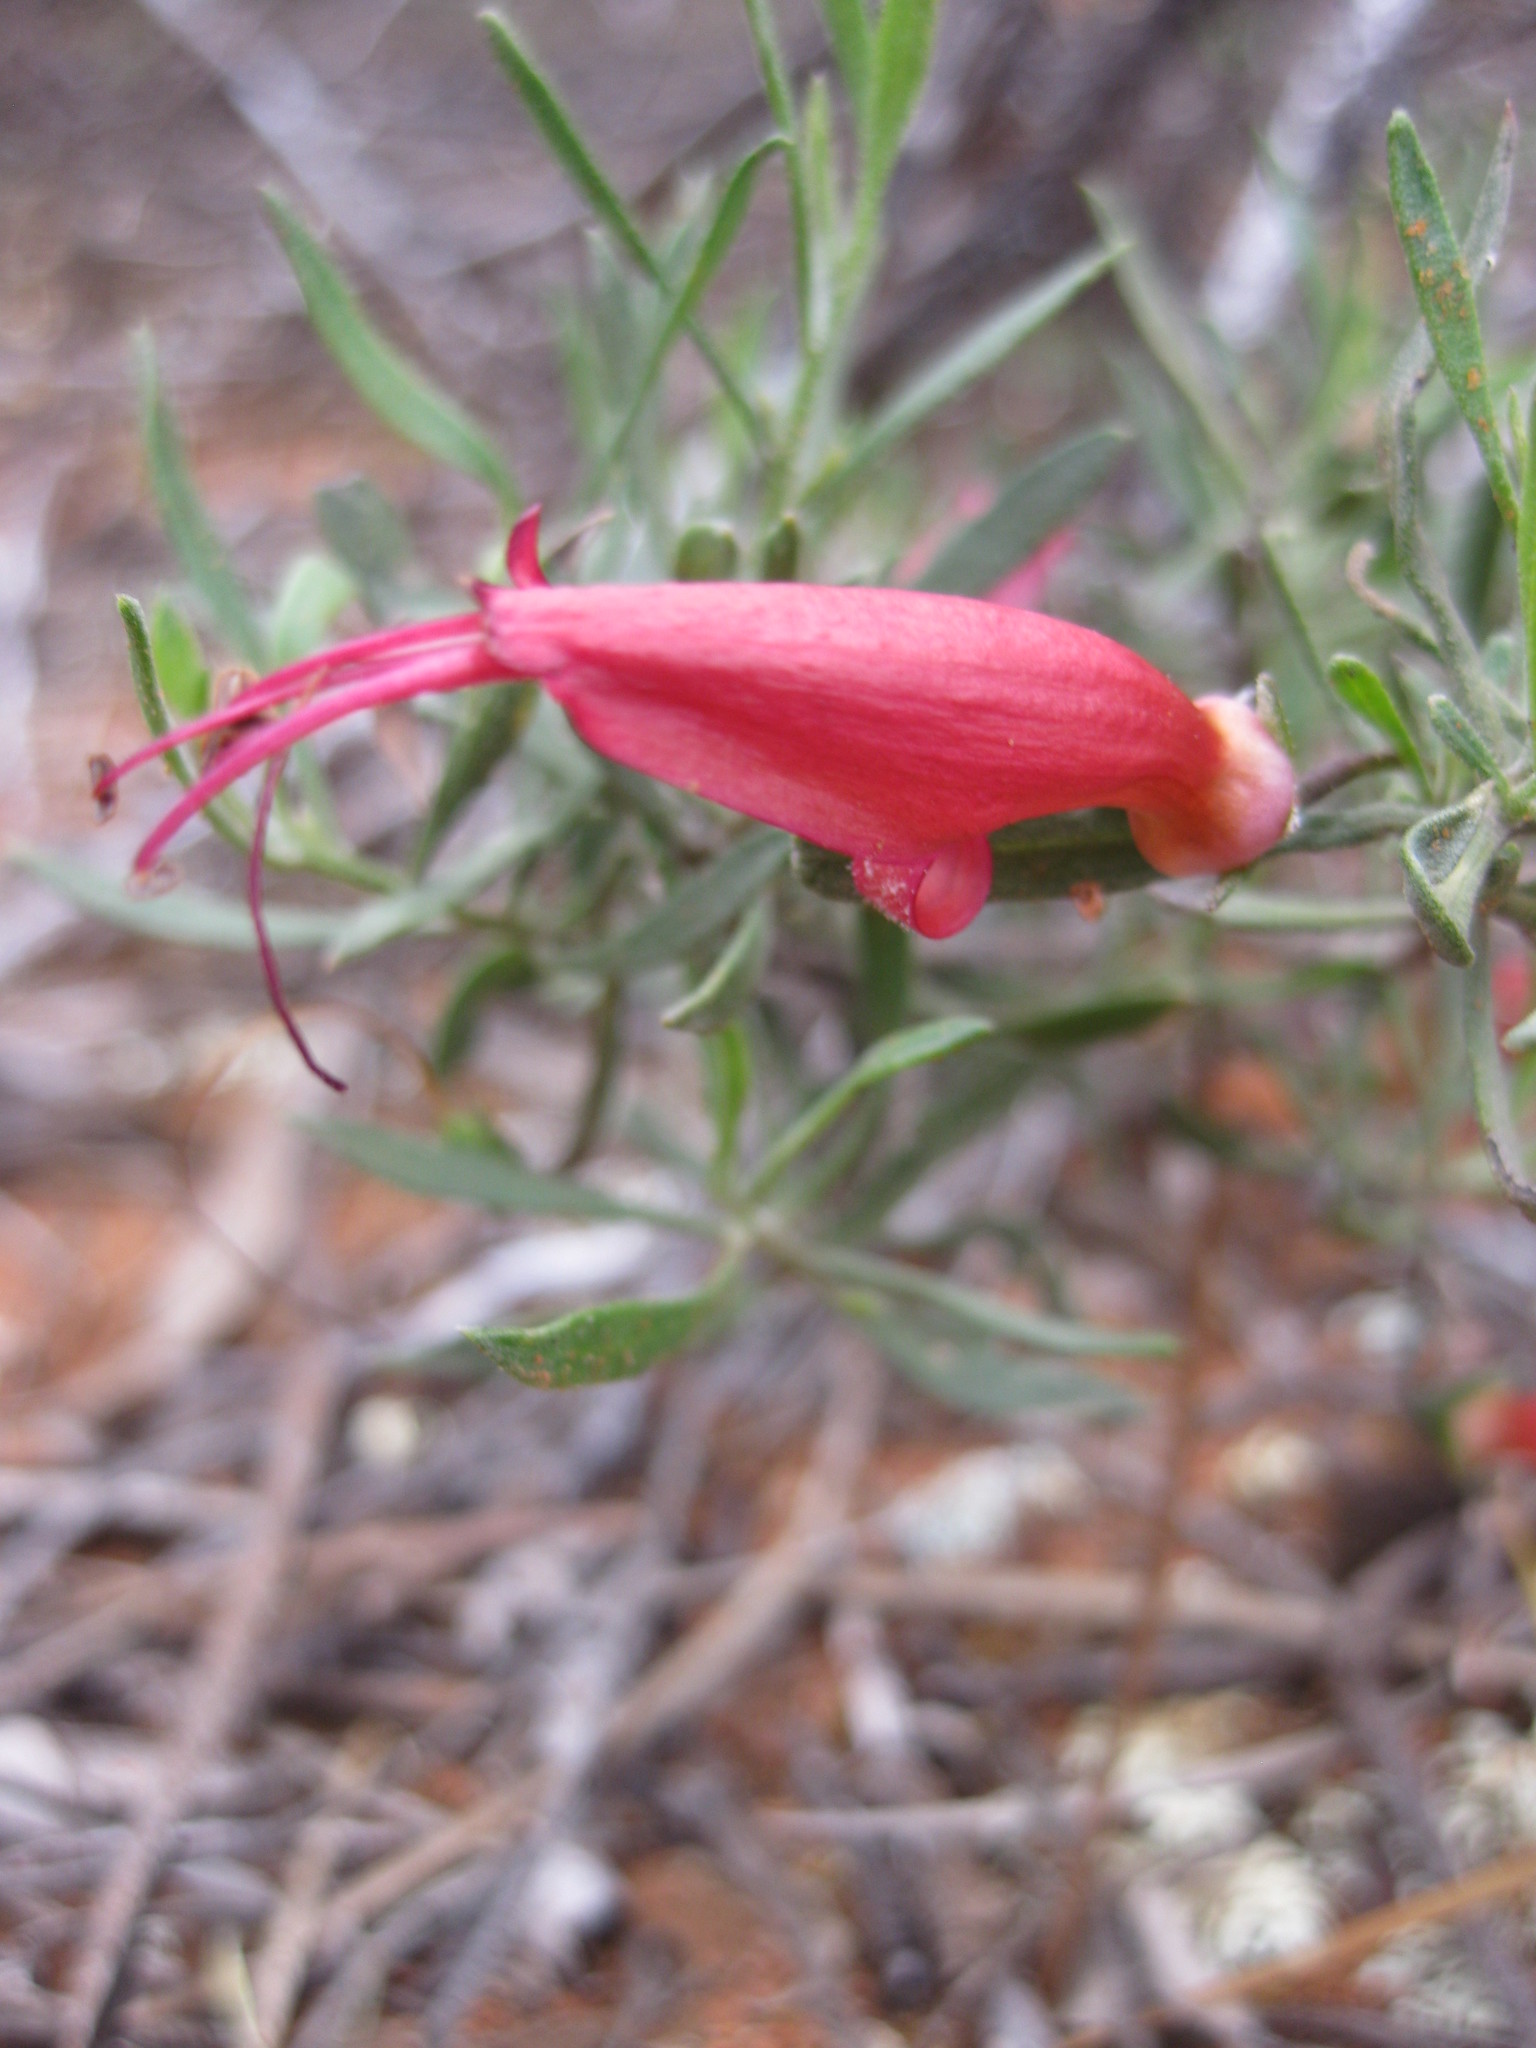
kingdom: Plantae
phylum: Tracheophyta
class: Magnoliopsida
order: Lamiales
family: Scrophulariaceae
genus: Eremophila
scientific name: Eremophila decipiens
